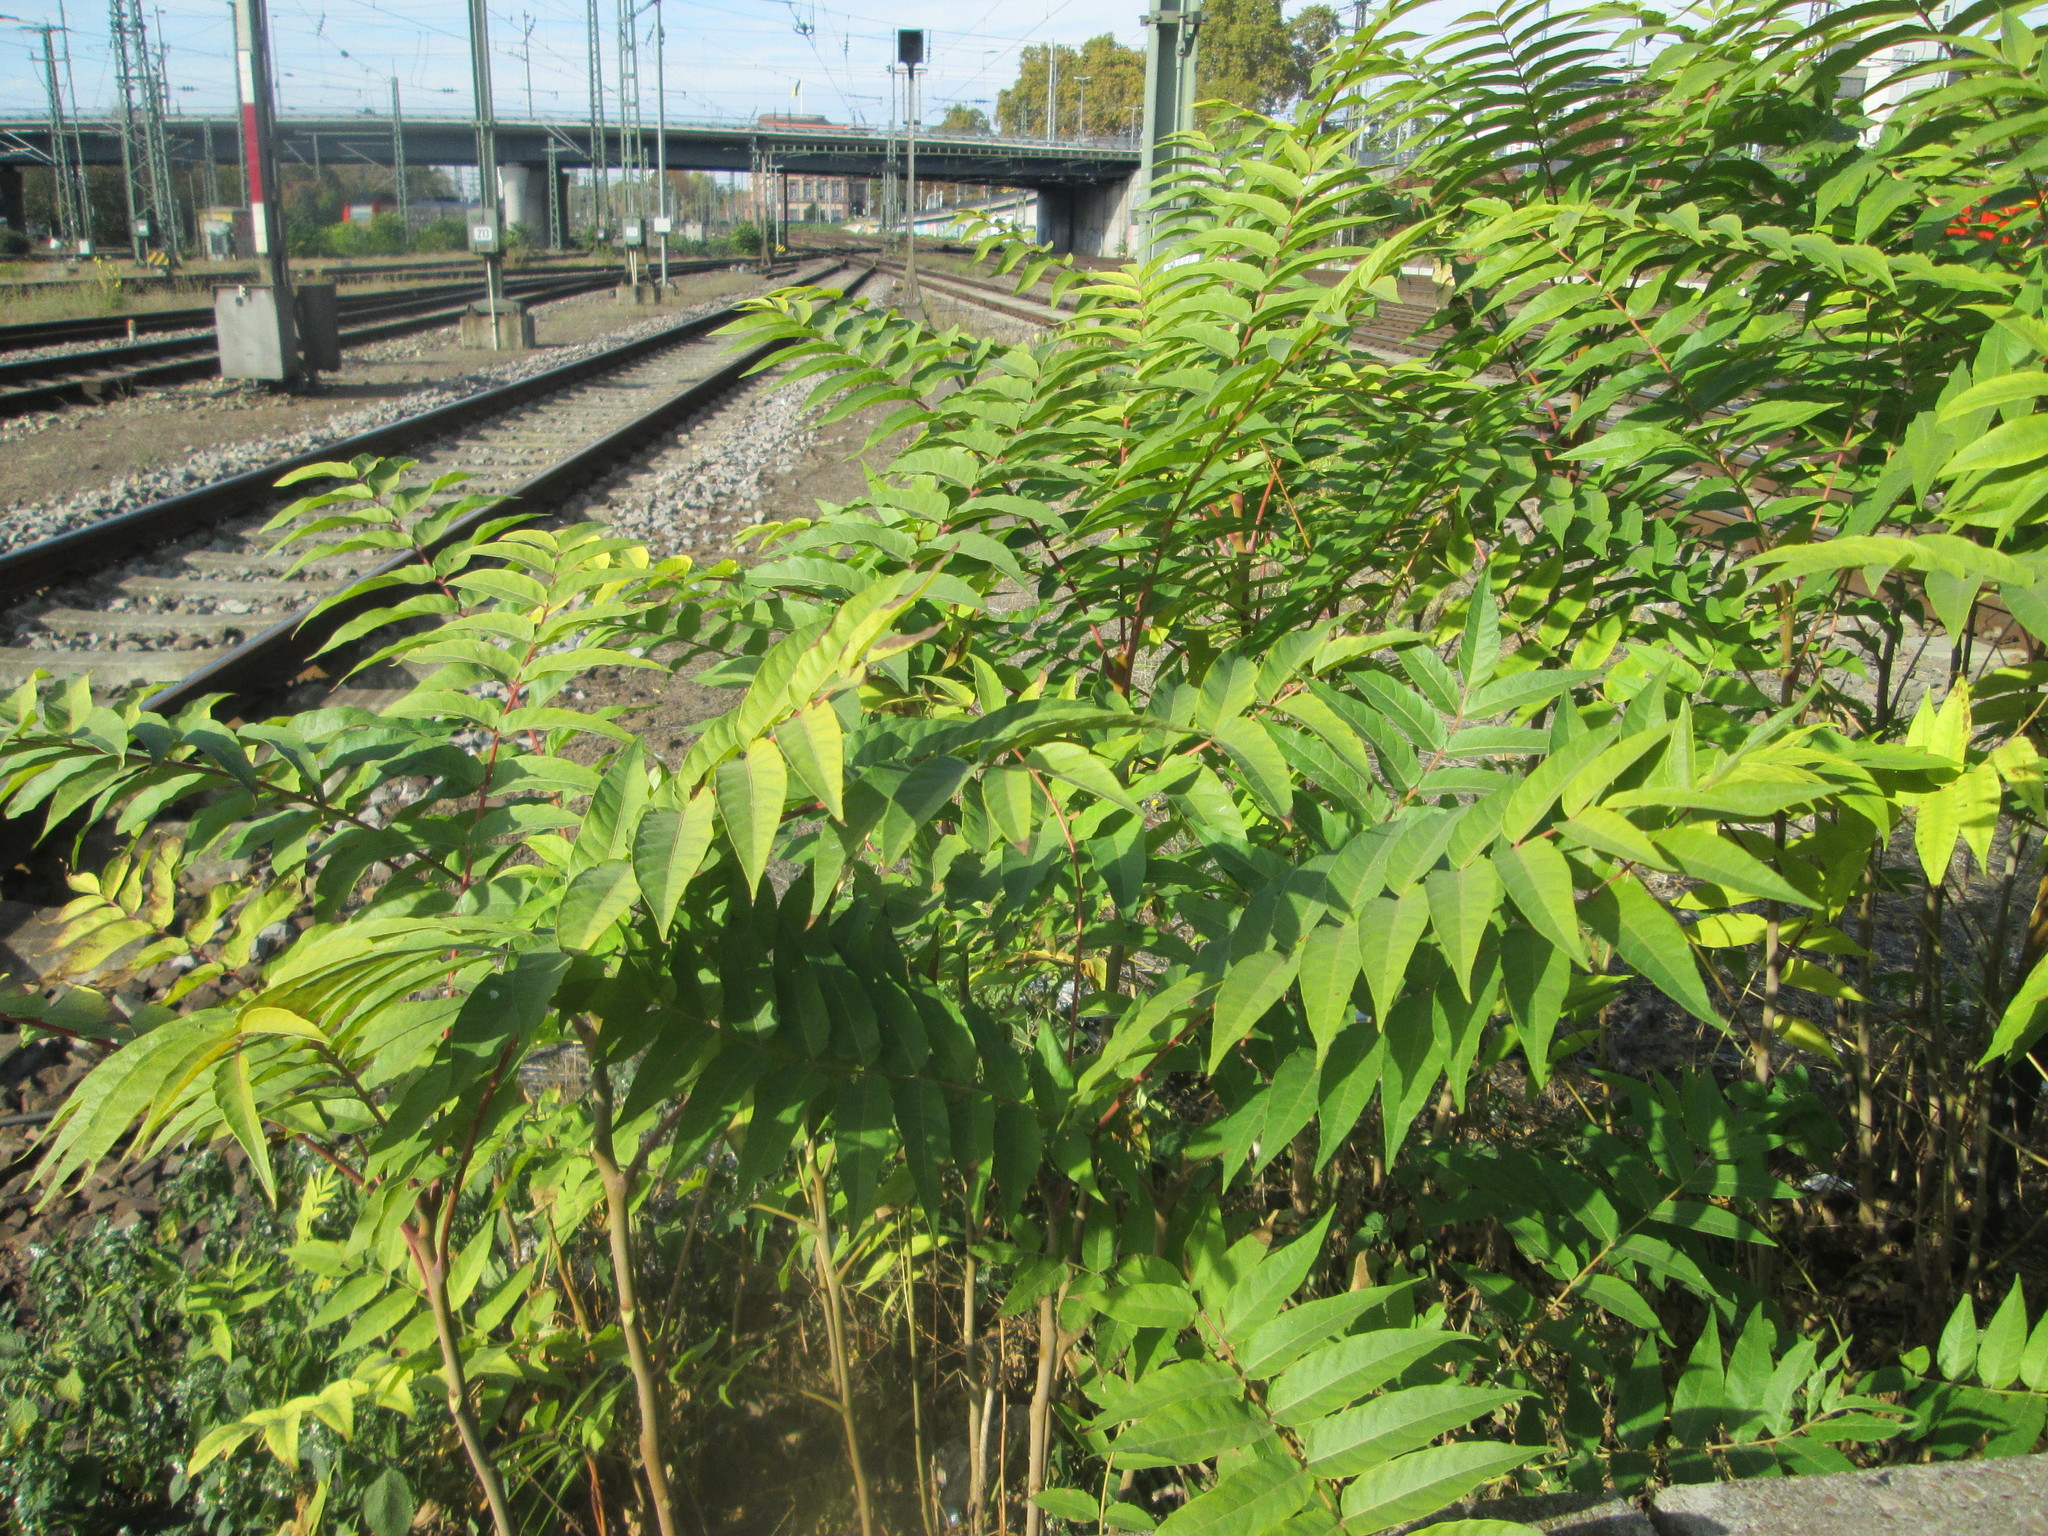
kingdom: Plantae
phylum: Tracheophyta
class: Magnoliopsida
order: Sapindales
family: Simaroubaceae
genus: Ailanthus
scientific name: Ailanthus altissima
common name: Tree-of-heaven
